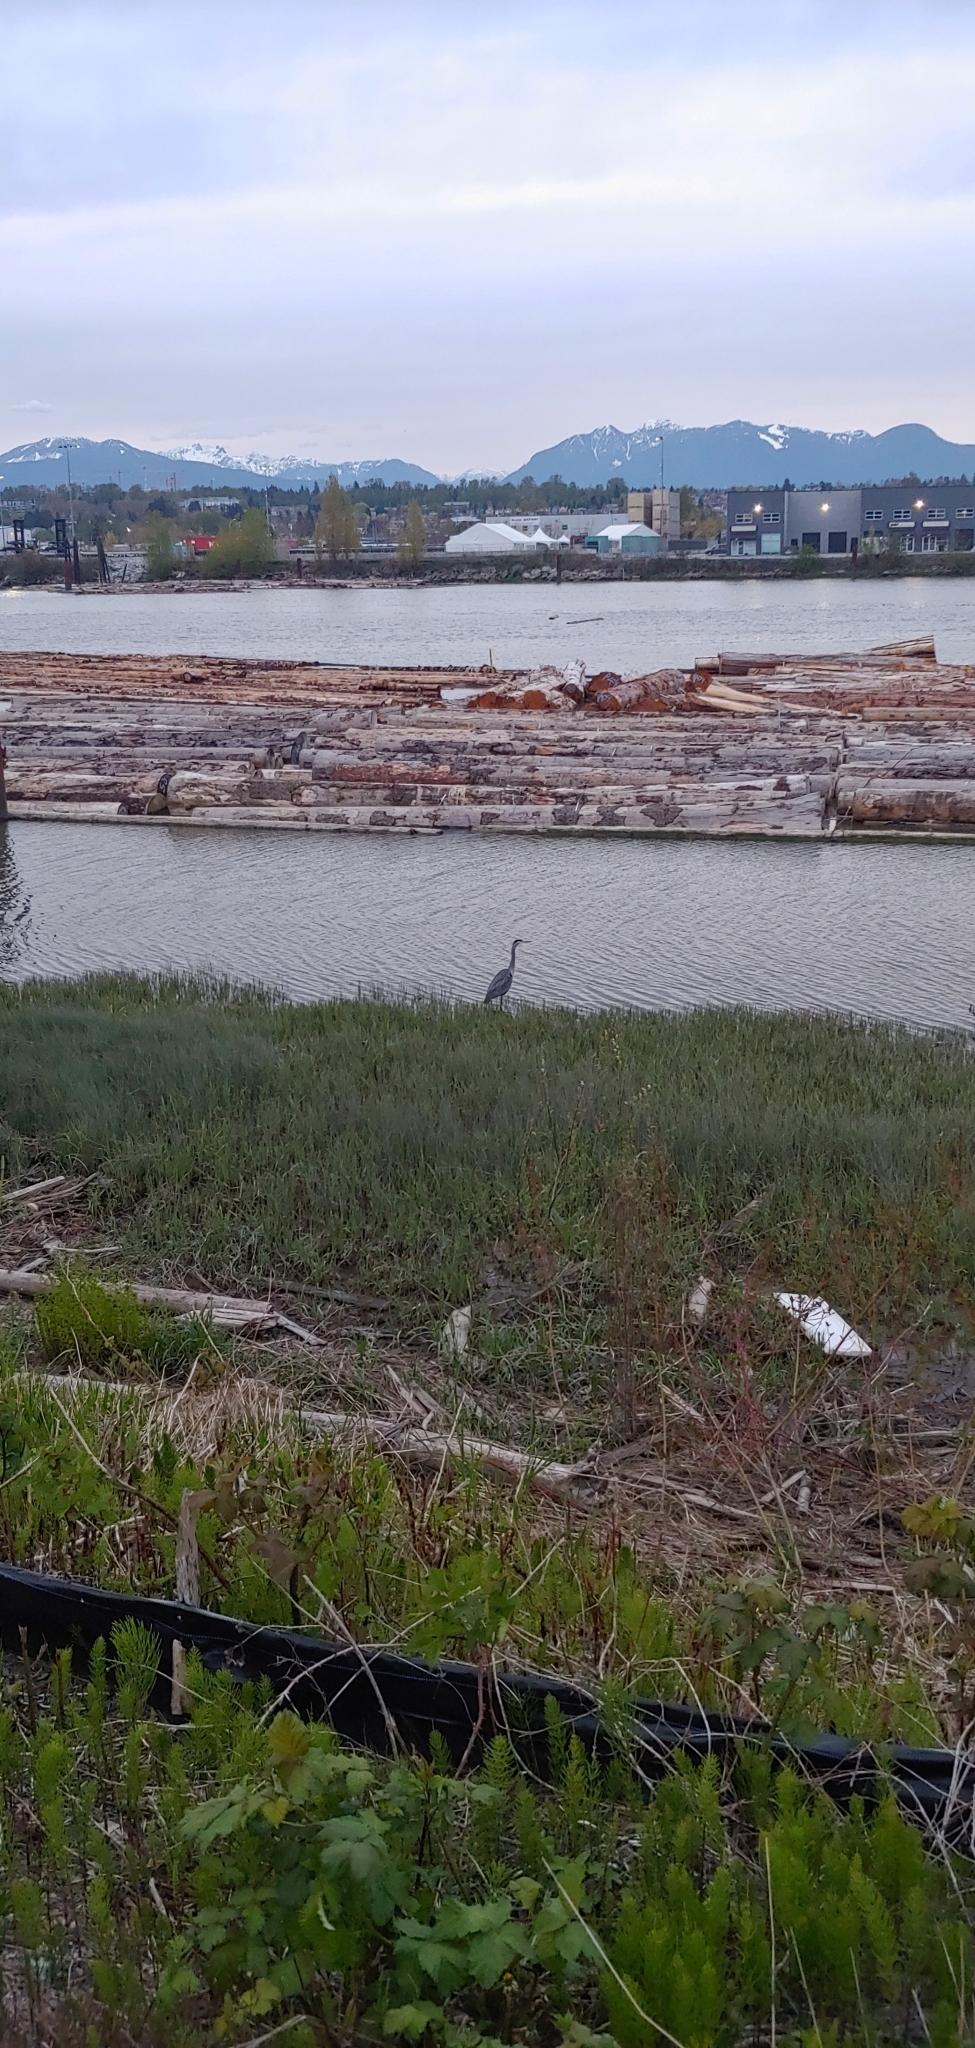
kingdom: Animalia
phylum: Chordata
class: Aves
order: Pelecaniformes
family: Ardeidae
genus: Ardea
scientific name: Ardea herodias
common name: Great blue heron
